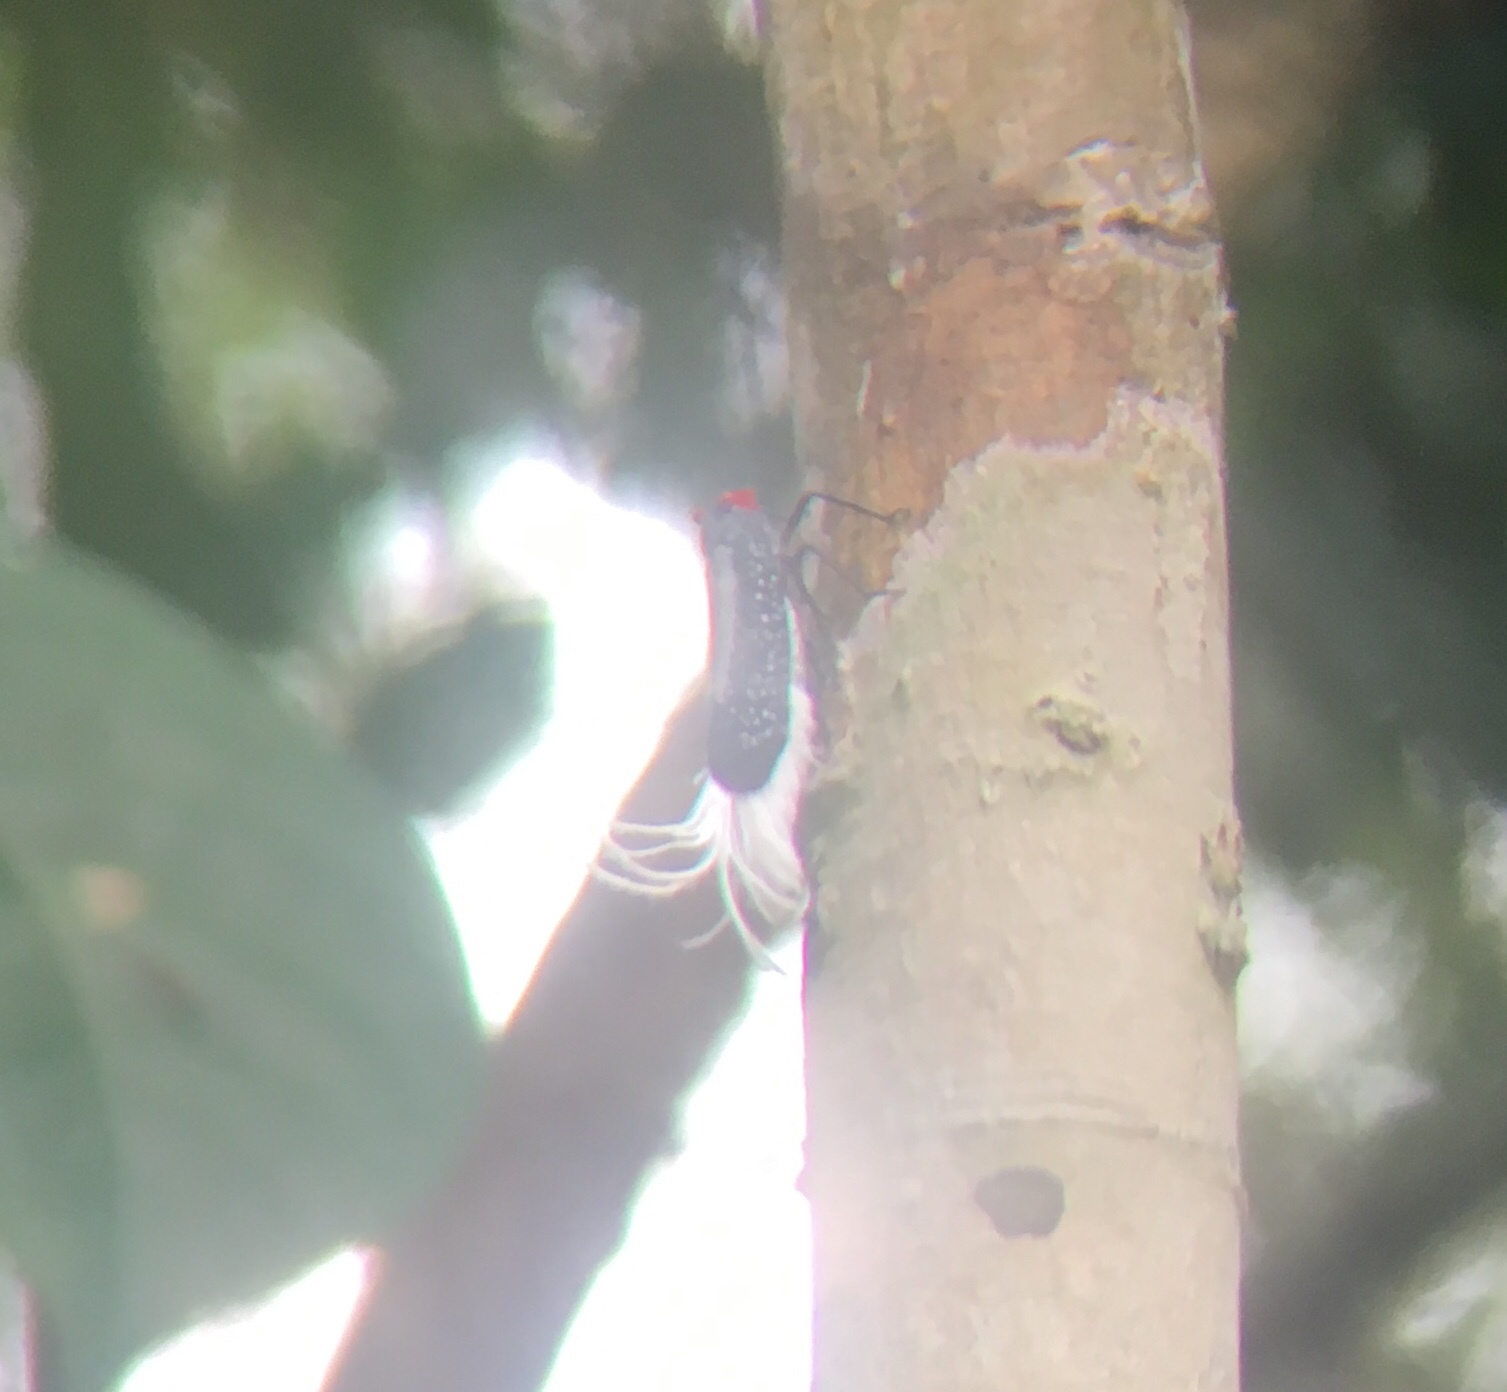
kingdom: Animalia
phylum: Arthropoda
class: Insecta
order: Hemiptera
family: Fulgoridae
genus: Lystra
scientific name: Lystra lanata
